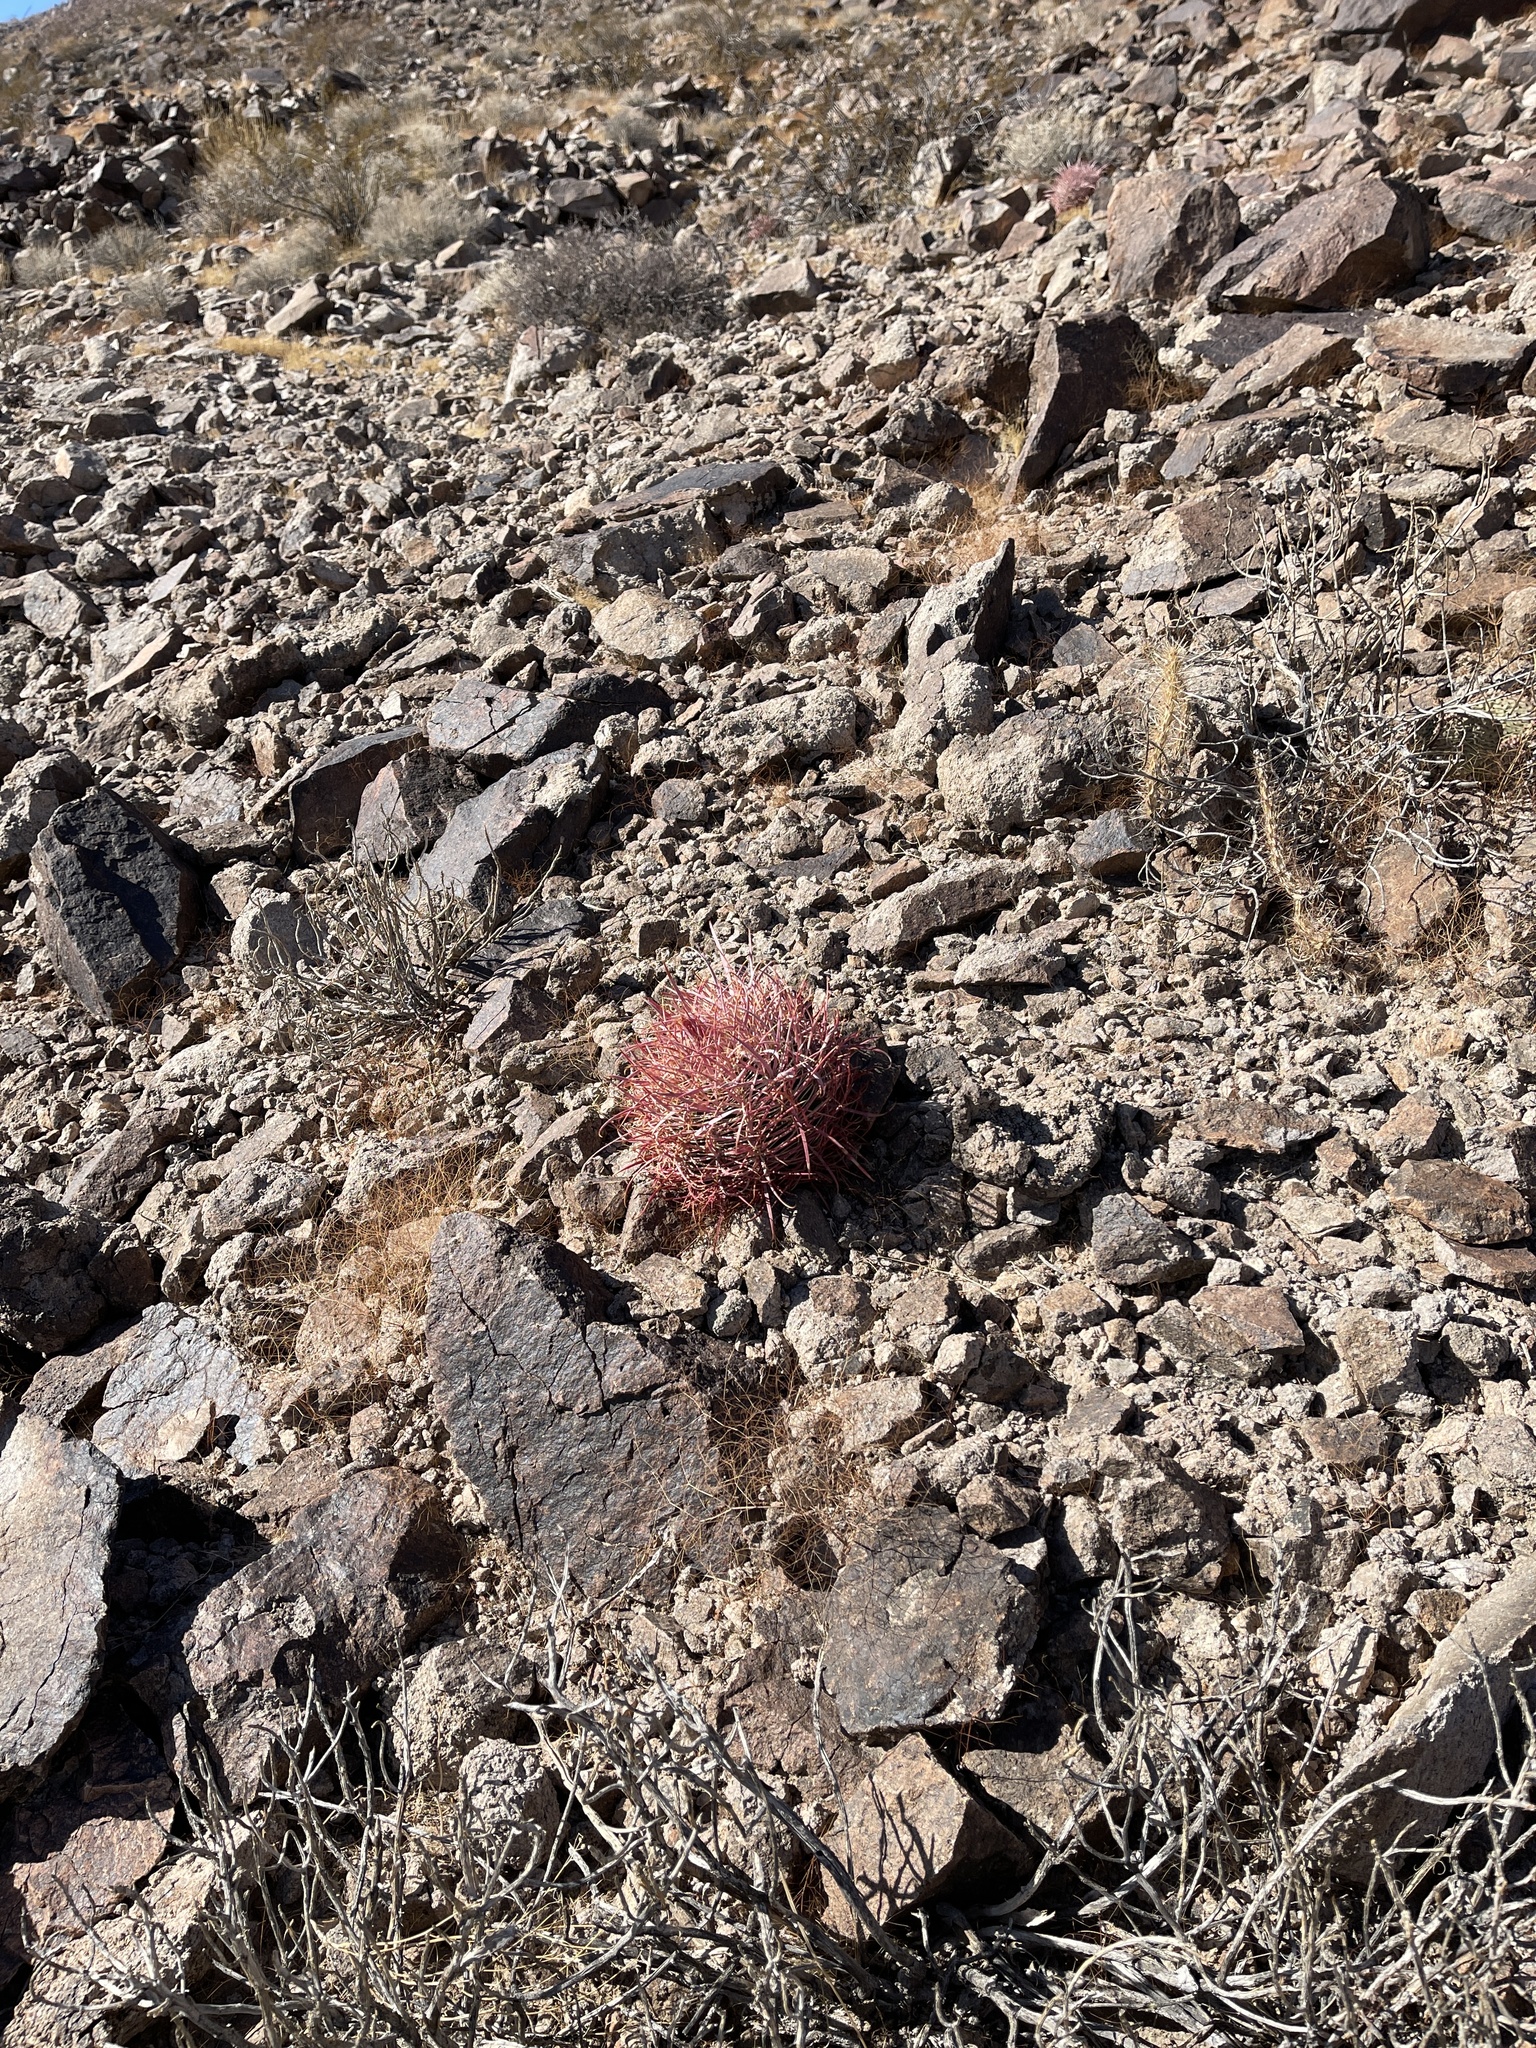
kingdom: Plantae
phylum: Tracheophyta
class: Magnoliopsida
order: Caryophyllales
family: Cactaceae
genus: Ferocactus
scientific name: Ferocactus cylindraceus
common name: California barrel cactus
